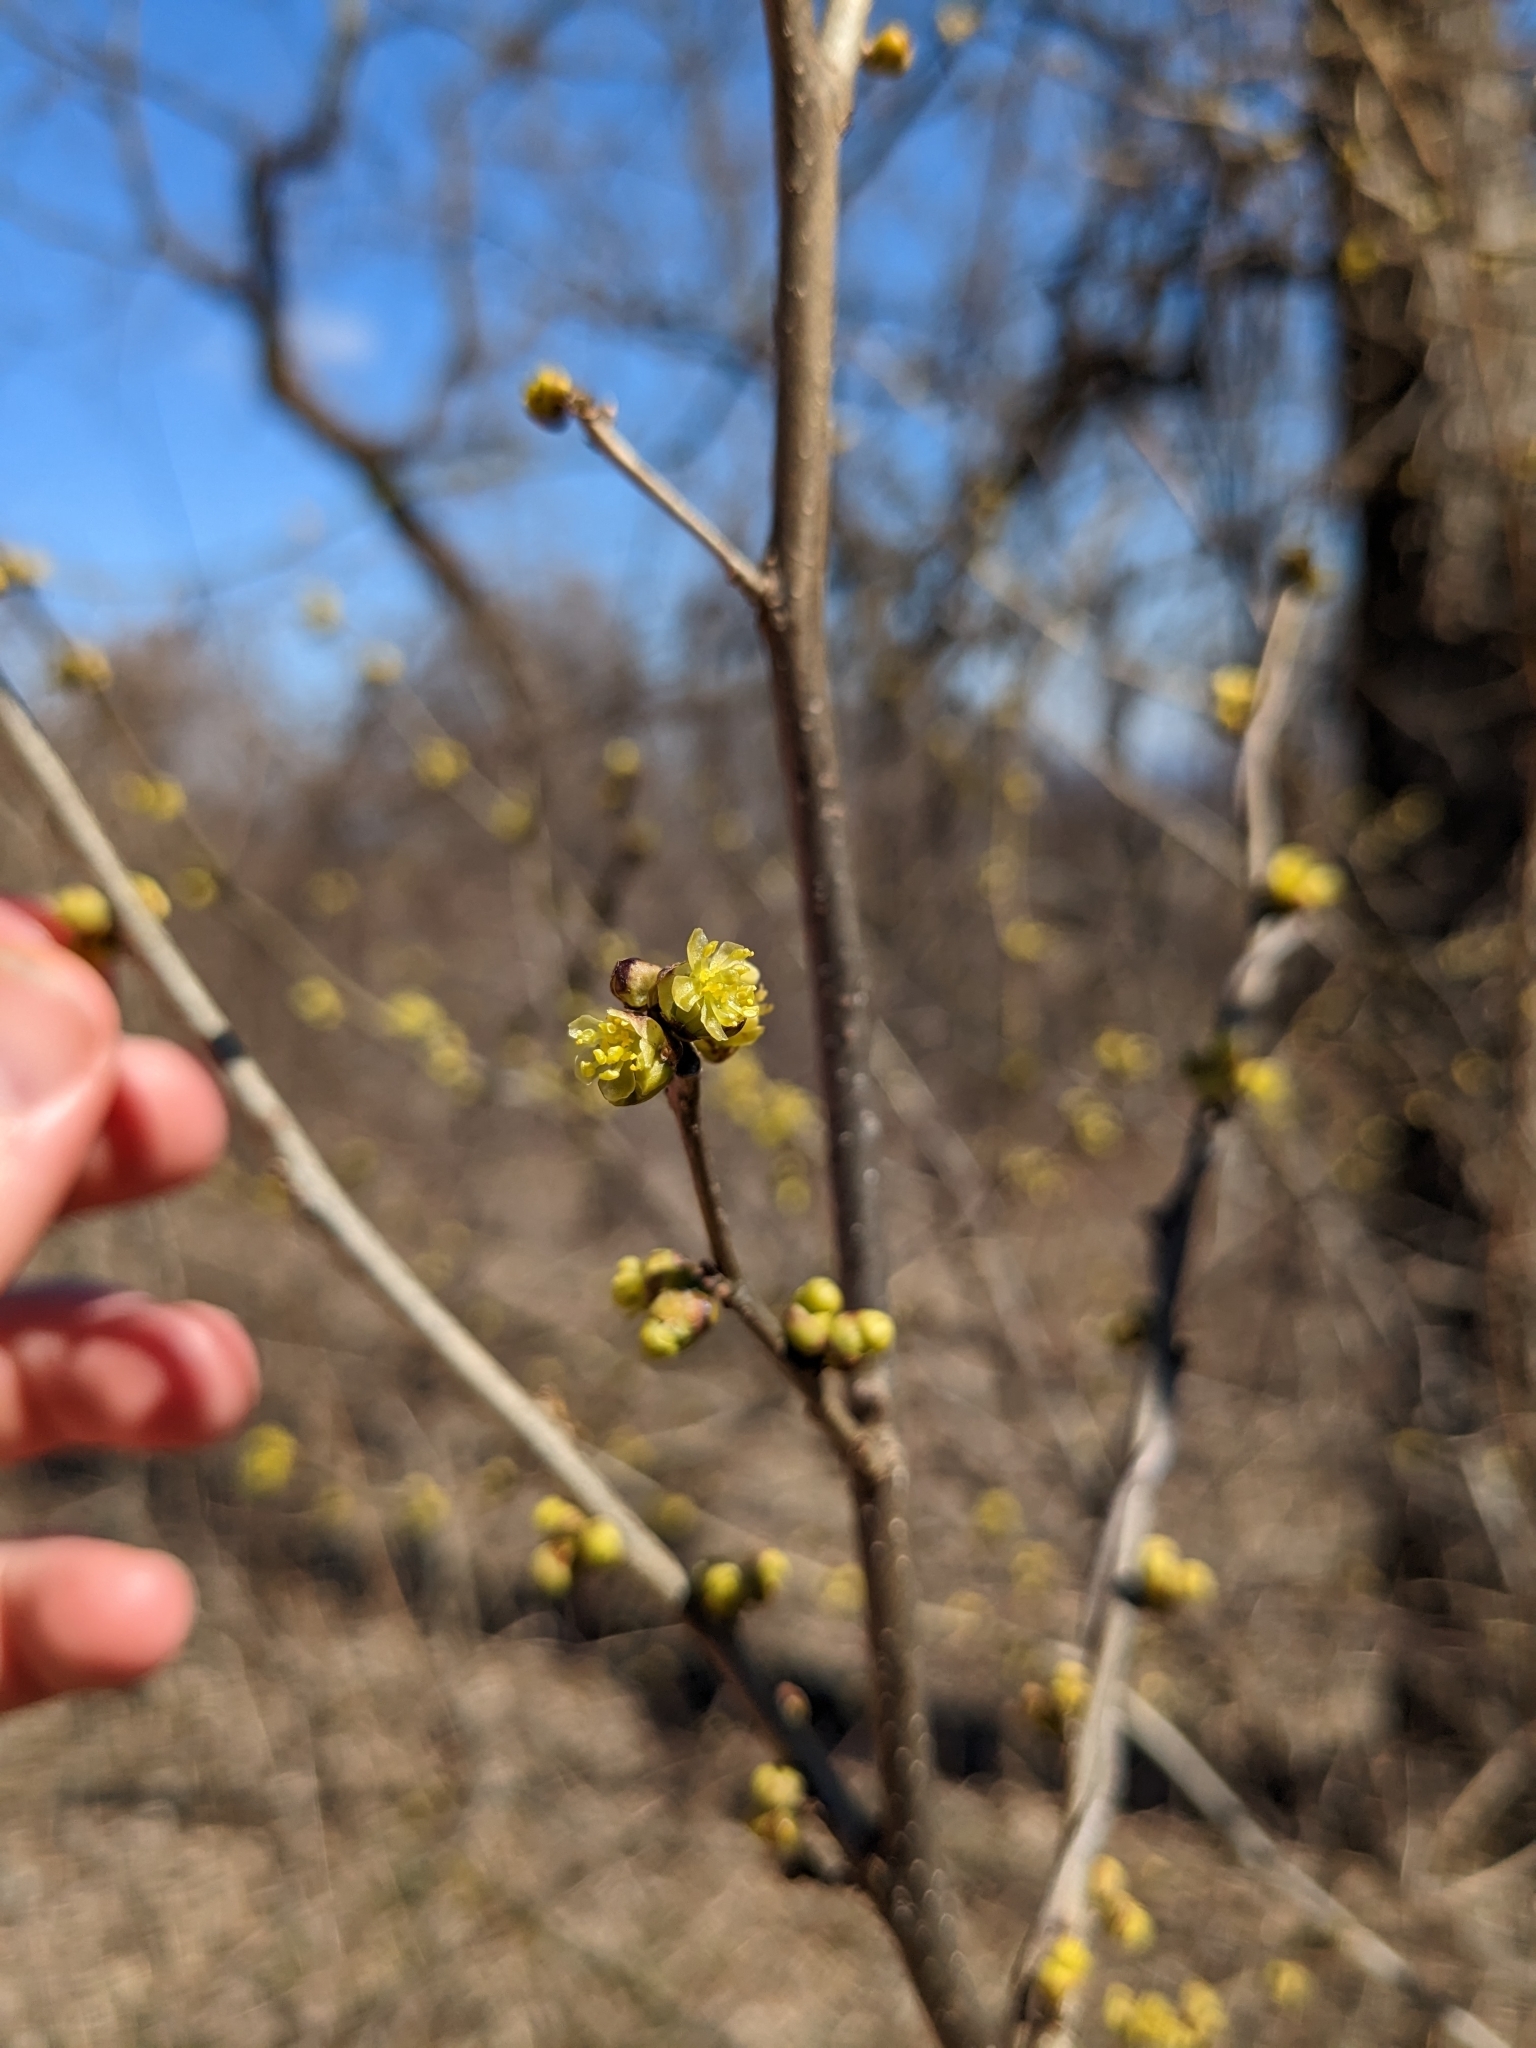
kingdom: Plantae
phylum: Tracheophyta
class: Magnoliopsida
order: Laurales
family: Lauraceae
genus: Lindera
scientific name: Lindera benzoin
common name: Spicebush
